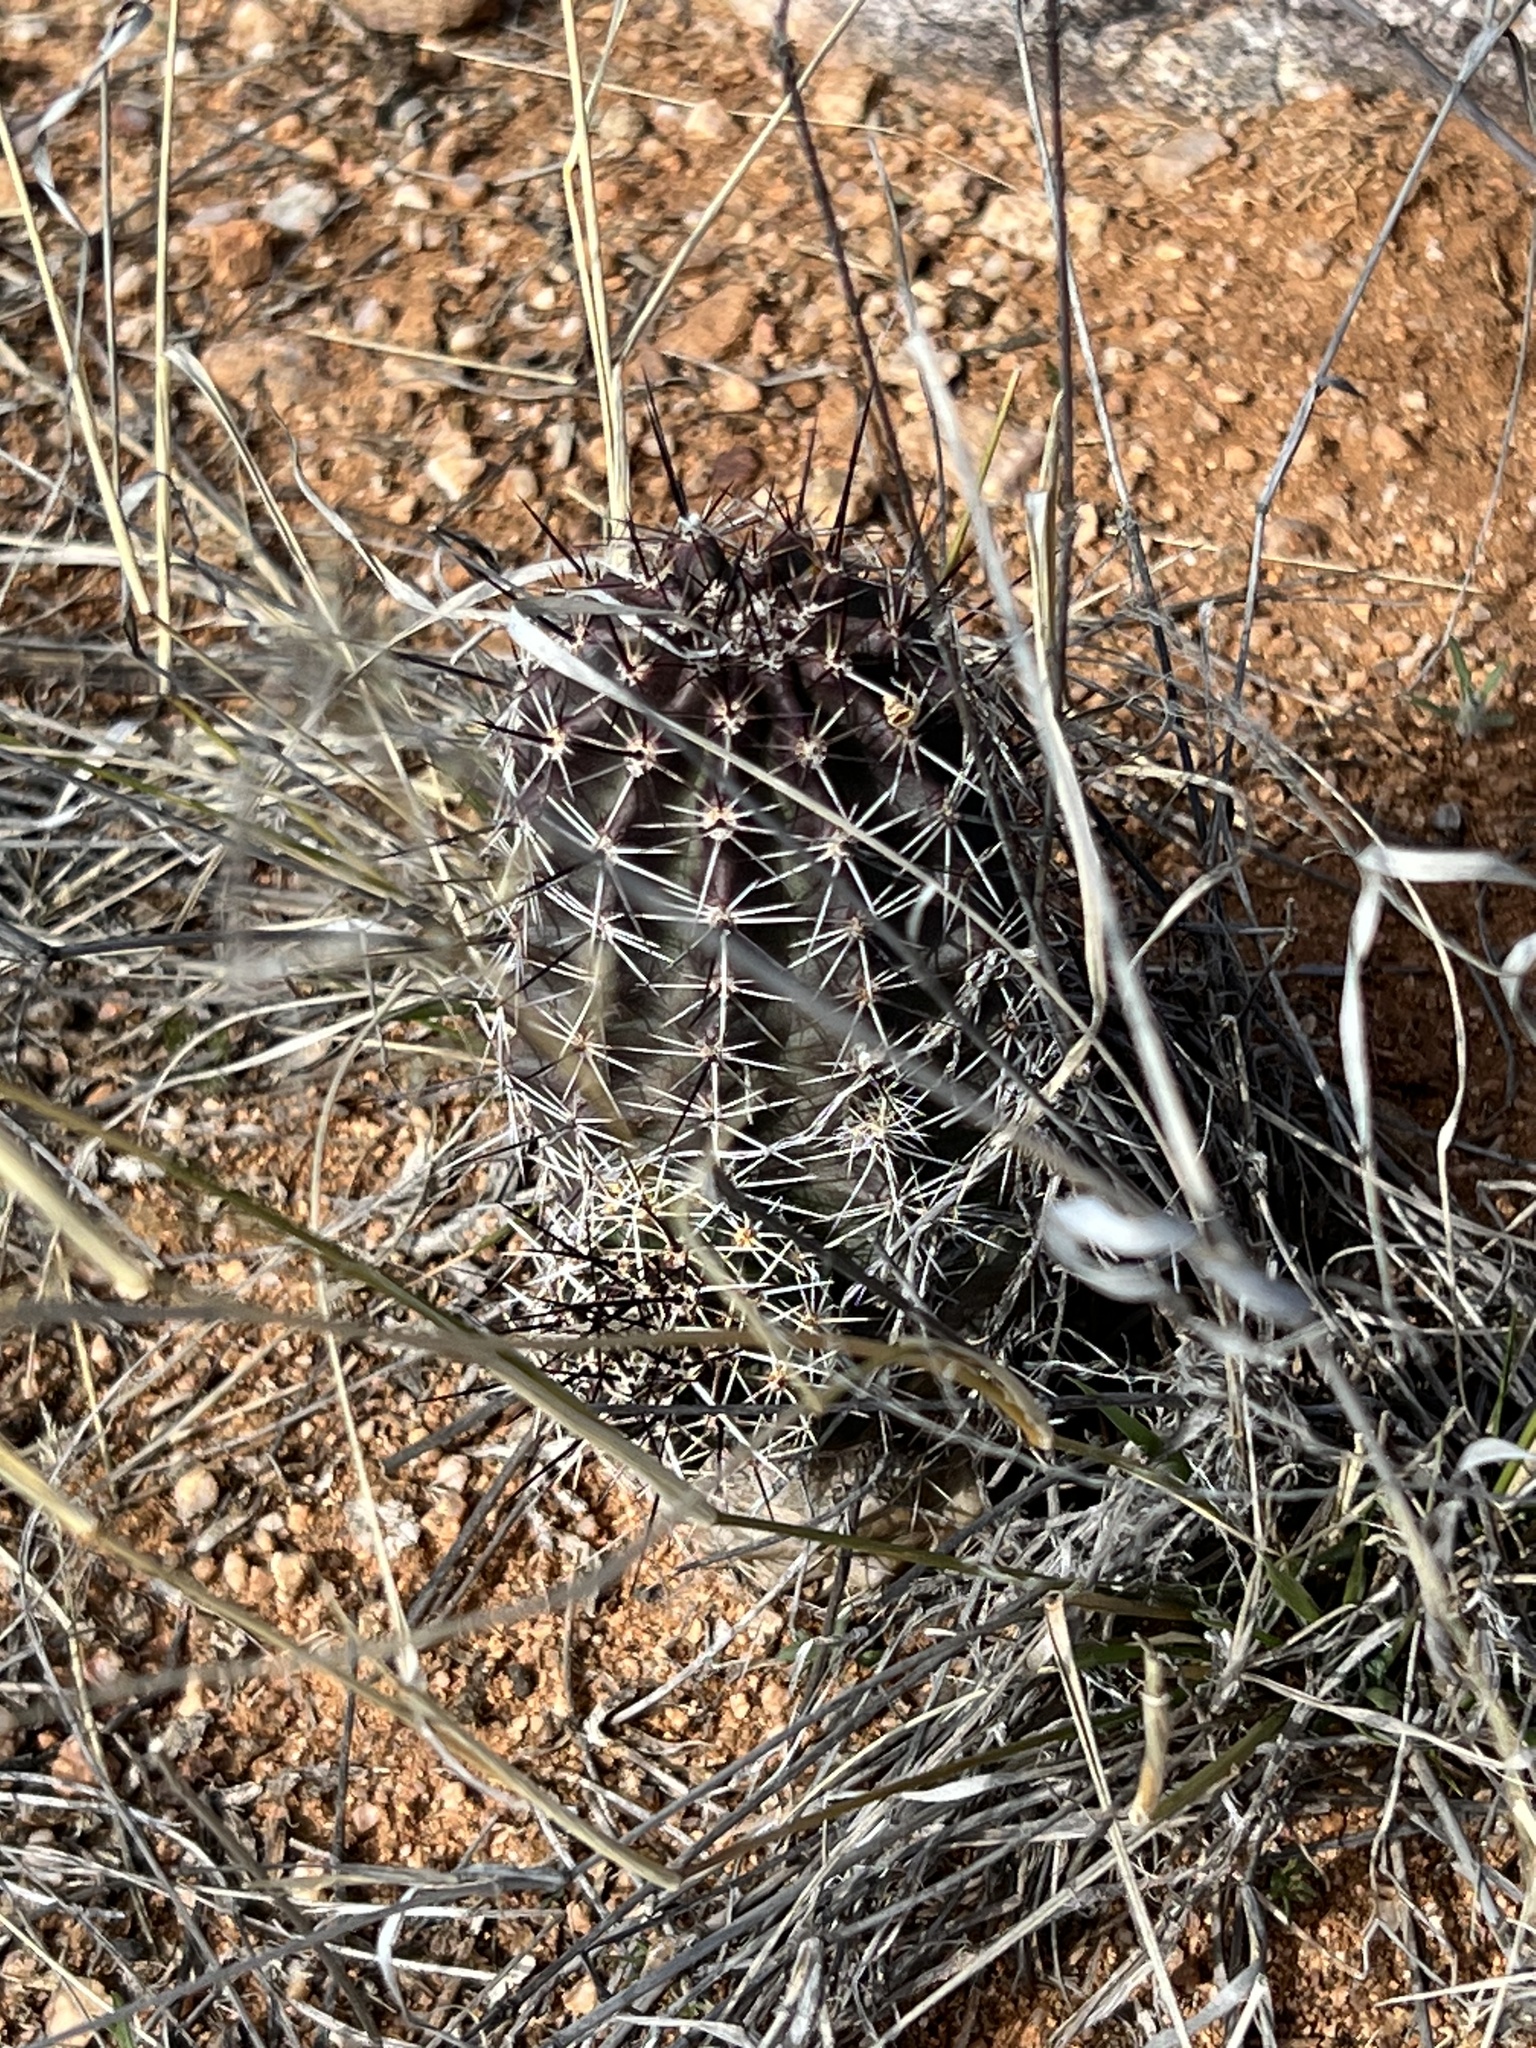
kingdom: Plantae
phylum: Tracheophyta
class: Magnoliopsida
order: Caryophyllales
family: Cactaceae
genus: Echinocereus
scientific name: Echinocereus fendleri
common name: Fendler's hedgehog cactus
